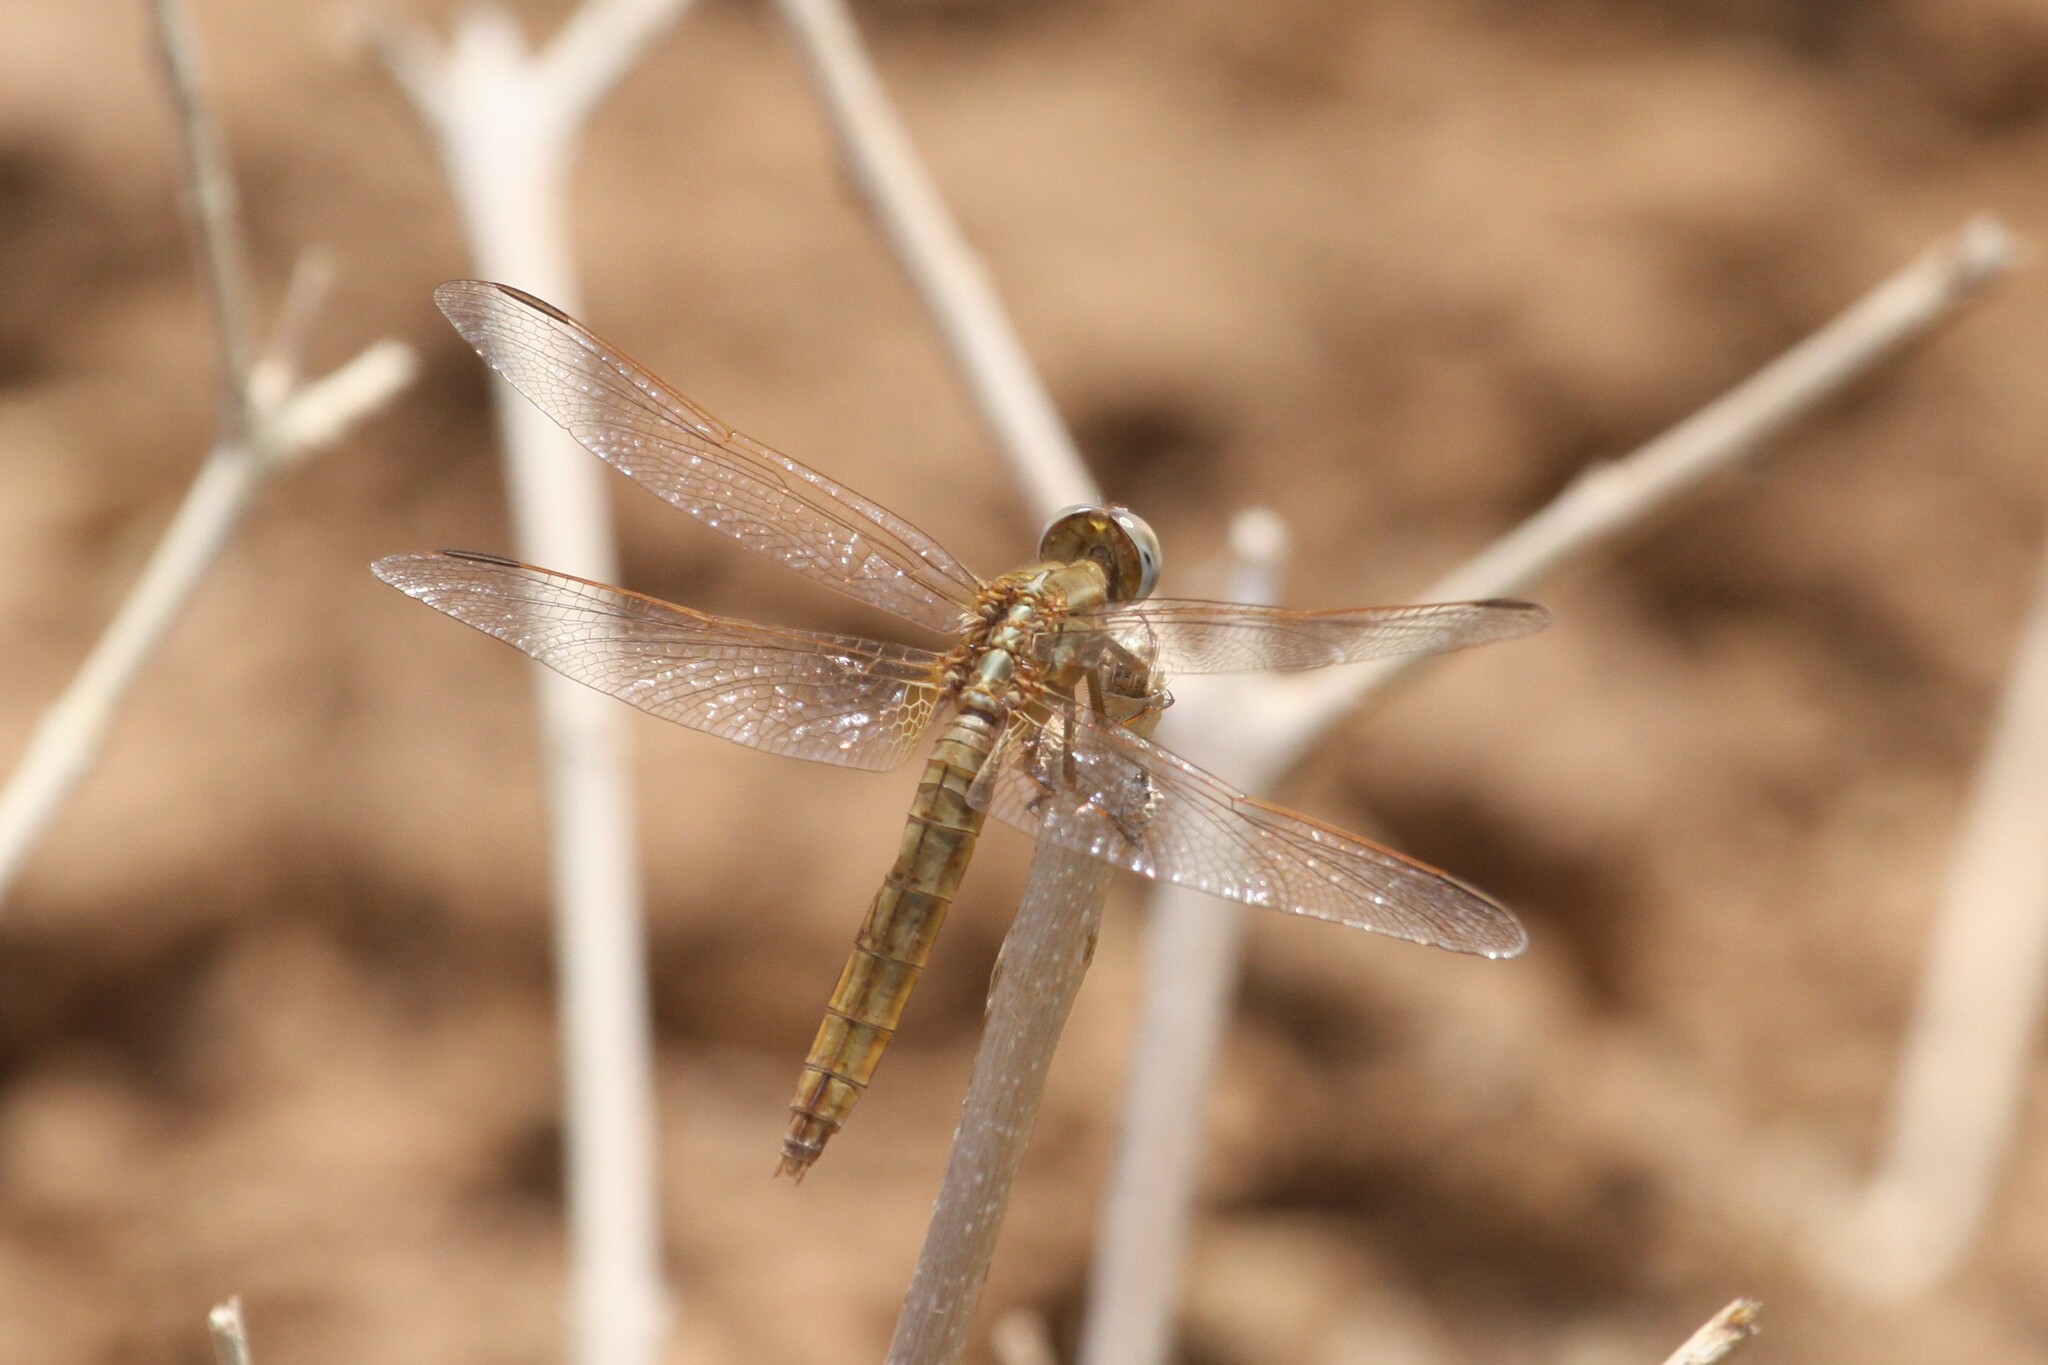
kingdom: Animalia
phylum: Arthropoda
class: Insecta
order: Odonata
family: Libellulidae
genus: Crocothemis
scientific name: Crocothemis erythraea
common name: Scarlet dragonfly
